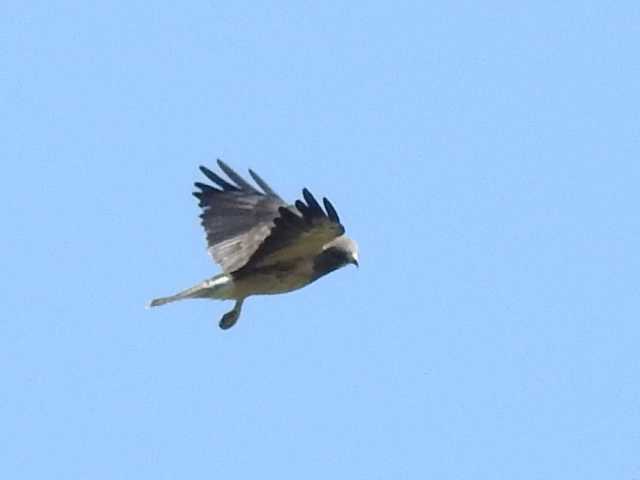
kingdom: Animalia
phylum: Chordata
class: Aves
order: Accipitriformes
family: Accipitridae
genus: Buteo
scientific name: Buteo swainsoni
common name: Swainson's hawk
